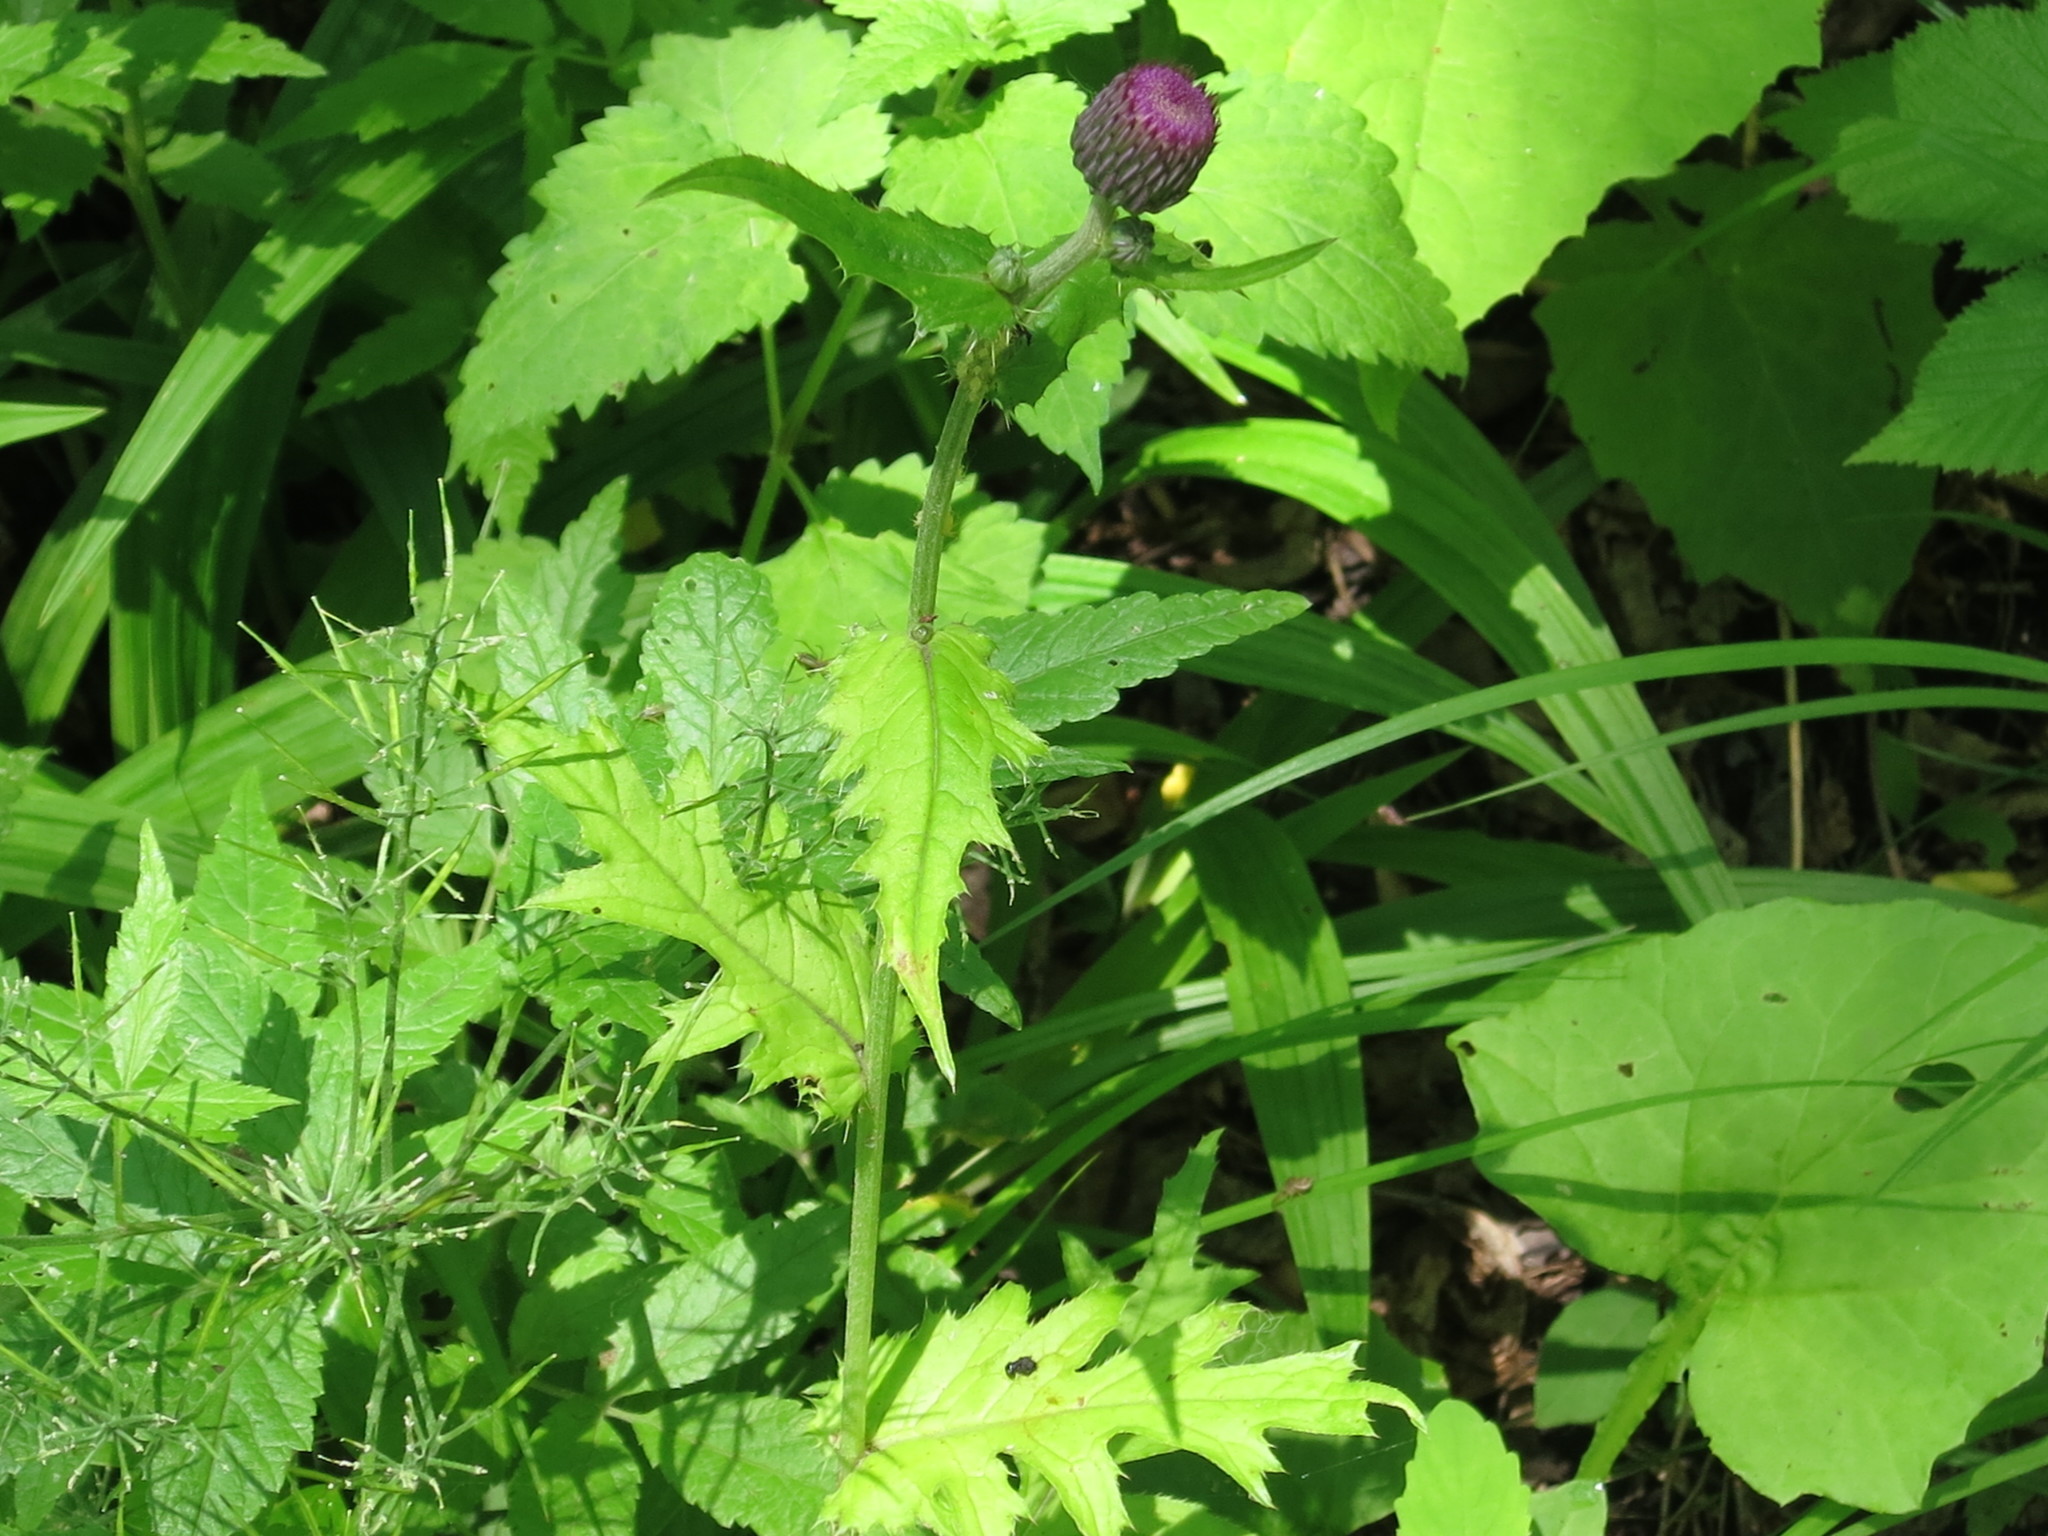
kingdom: Plantae
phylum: Tracheophyta
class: Magnoliopsida
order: Asterales
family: Asteraceae
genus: Cirsium
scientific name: Cirsium schantarense
